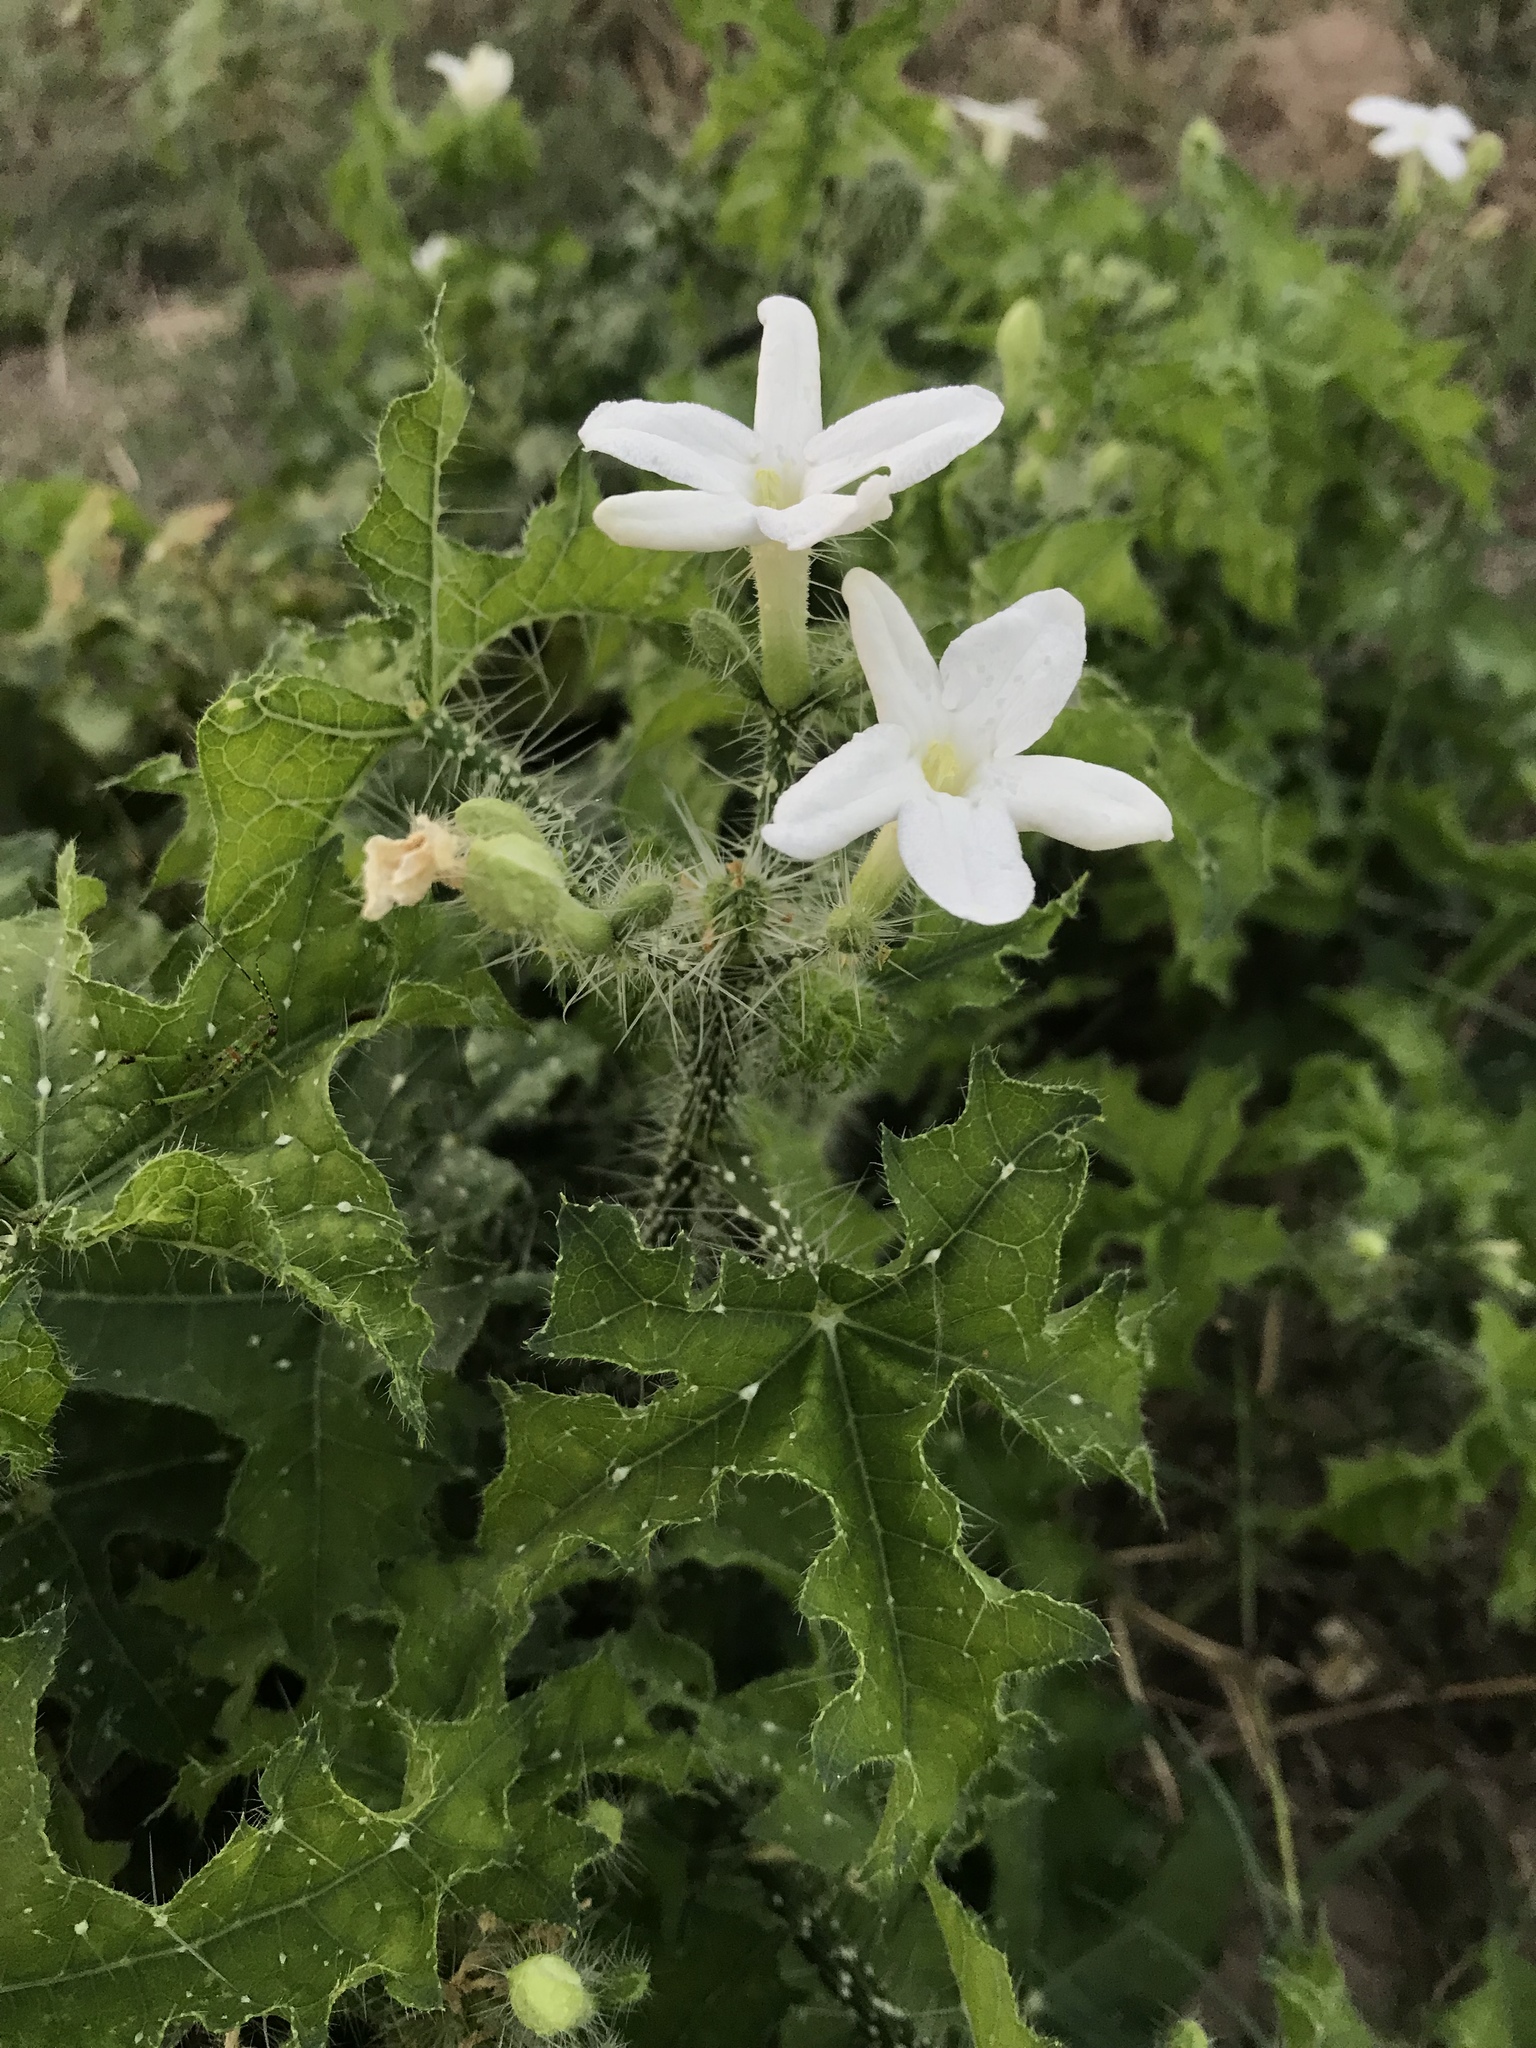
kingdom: Plantae
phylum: Tracheophyta
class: Magnoliopsida
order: Malpighiales
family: Euphorbiaceae
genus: Cnidoscolus
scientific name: Cnidoscolus texanus
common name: Texas bull-nettle
